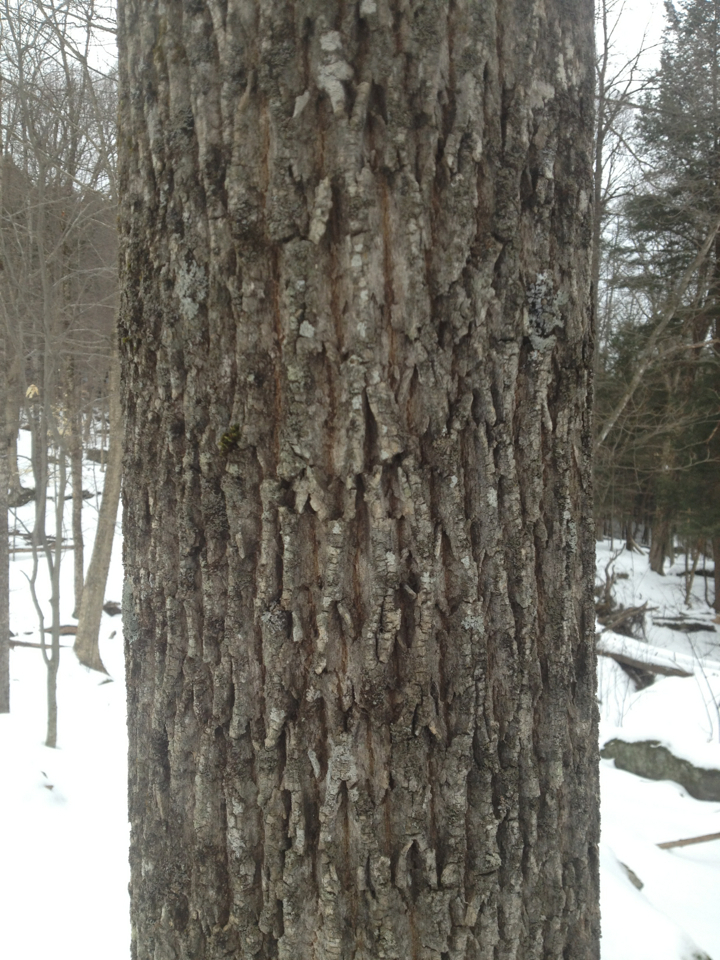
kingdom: Plantae
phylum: Tracheophyta
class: Magnoliopsida
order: Lamiales
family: Oleaceae
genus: Fraxinus
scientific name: Fraxinus americana
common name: White ash
